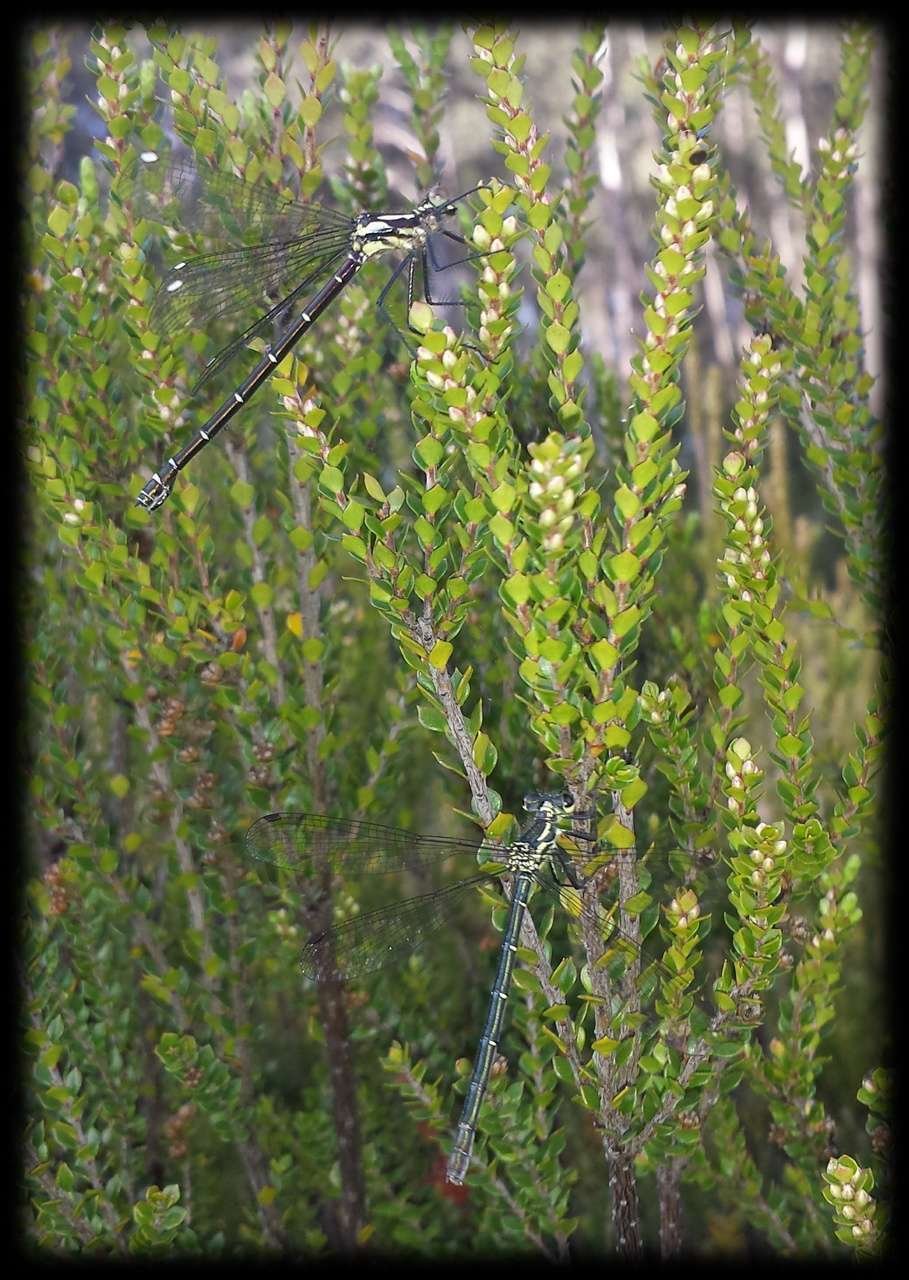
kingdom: Plantae
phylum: Tracheophyta
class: Magnoliopsida
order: Ericales
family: Ericaceae
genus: Epacris
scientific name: Epacris rhombifolia
